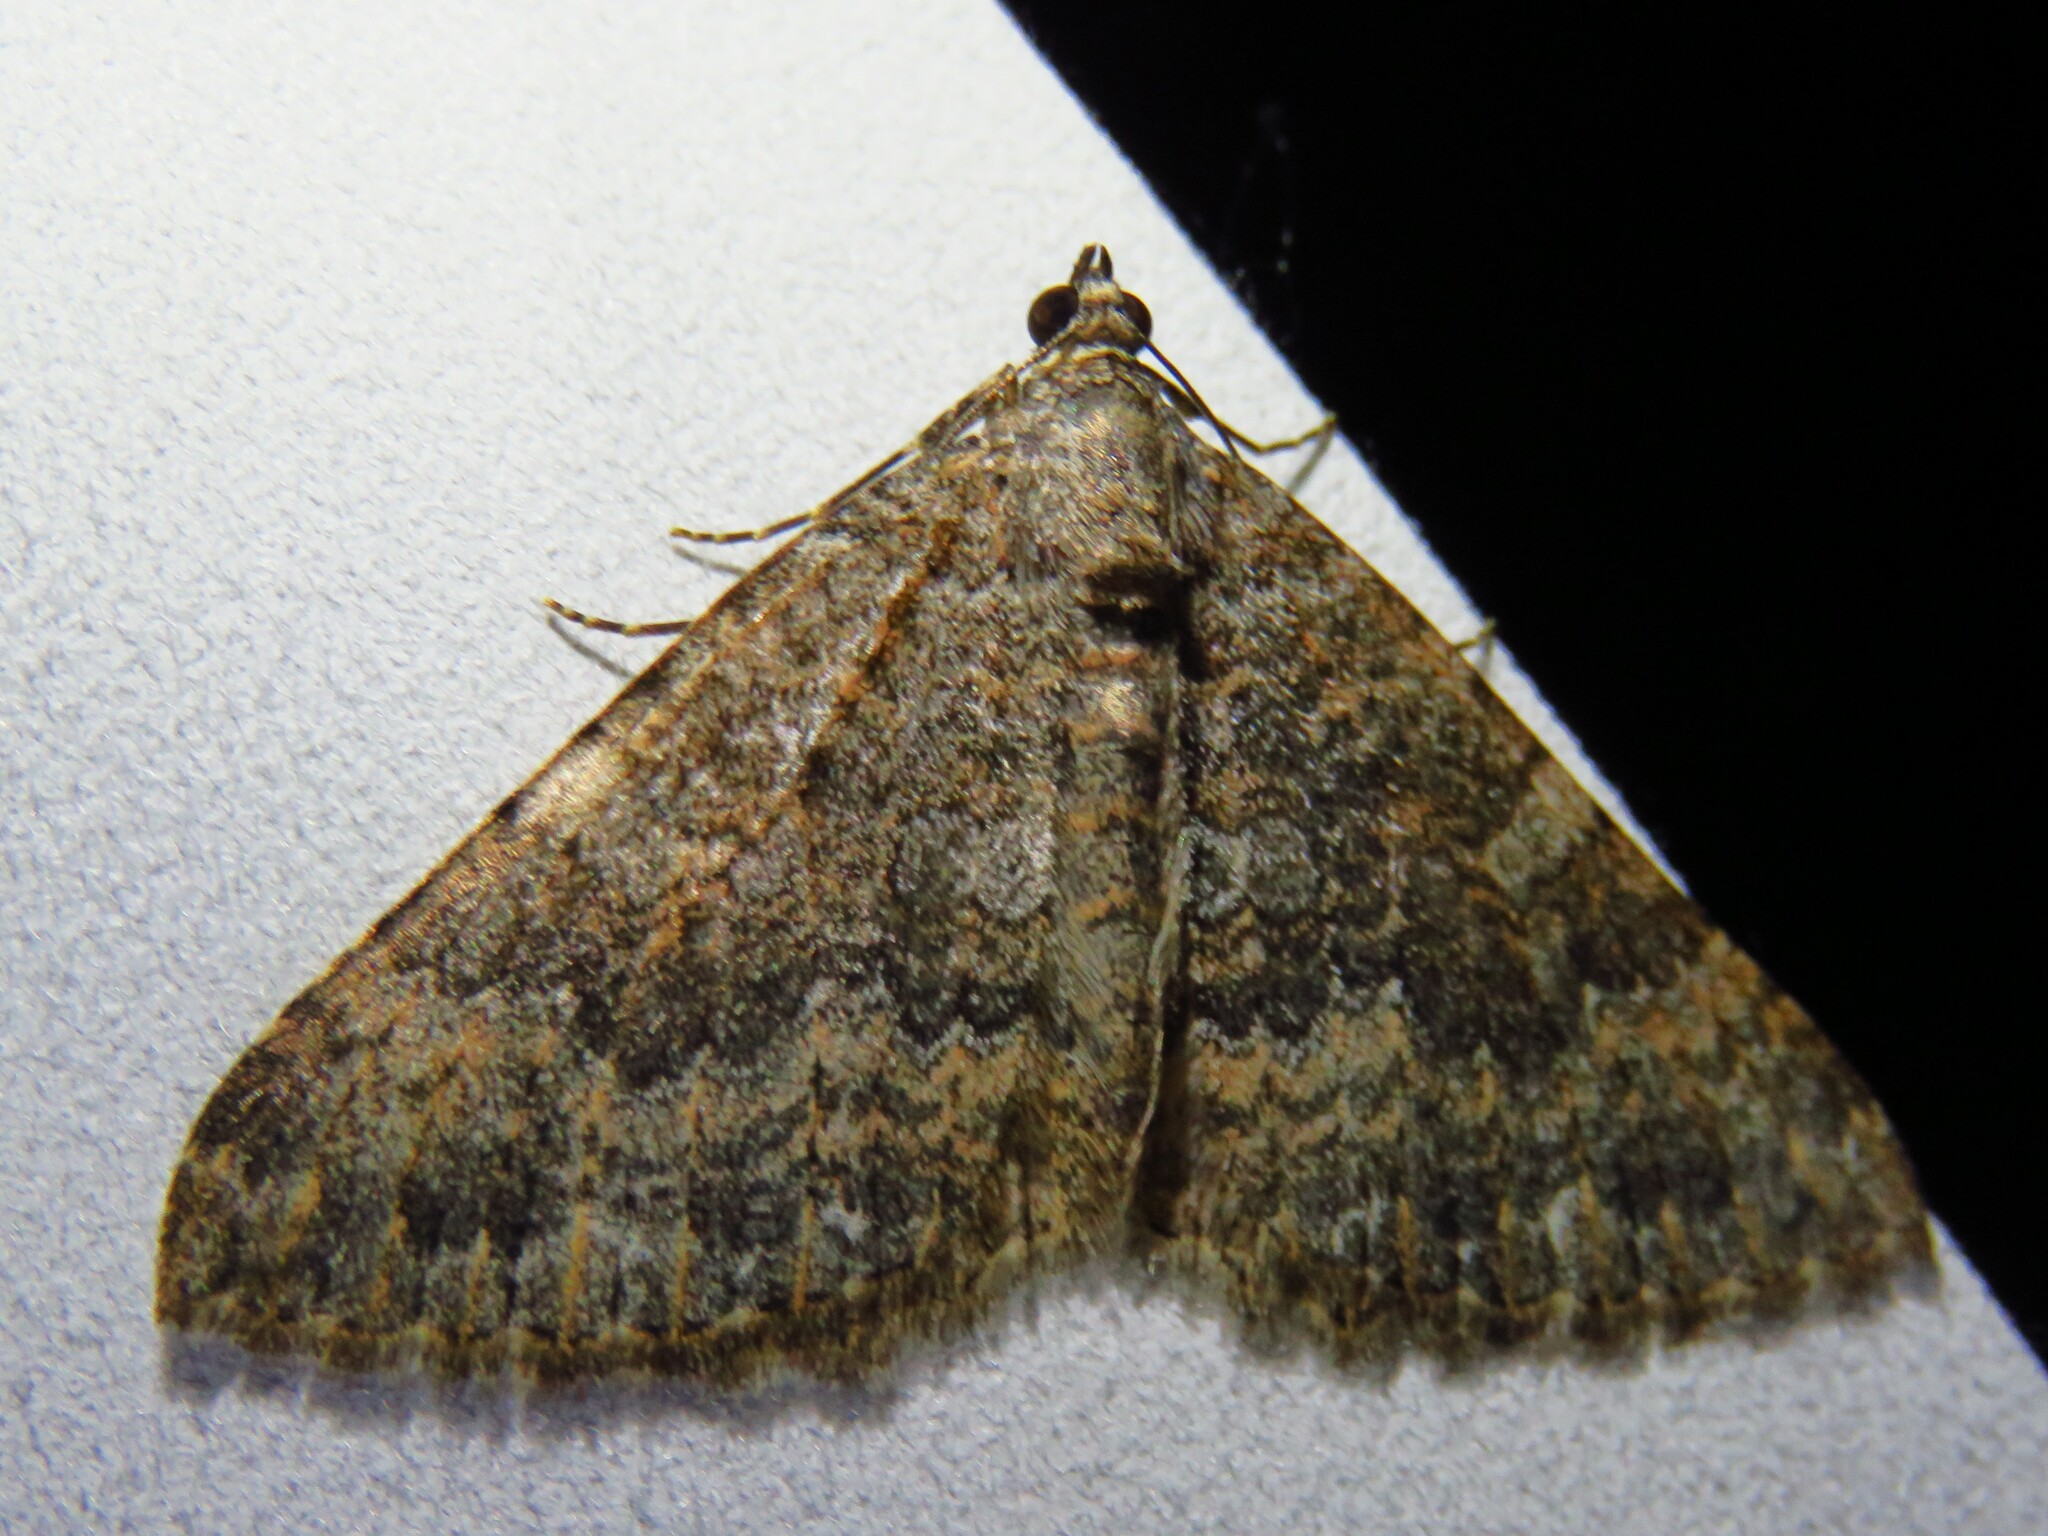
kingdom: Animalia
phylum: Arthropoda
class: Insecta
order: Lepidoptera
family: Geometridae
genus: Archirhoe
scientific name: Archirhoe neomexicana
